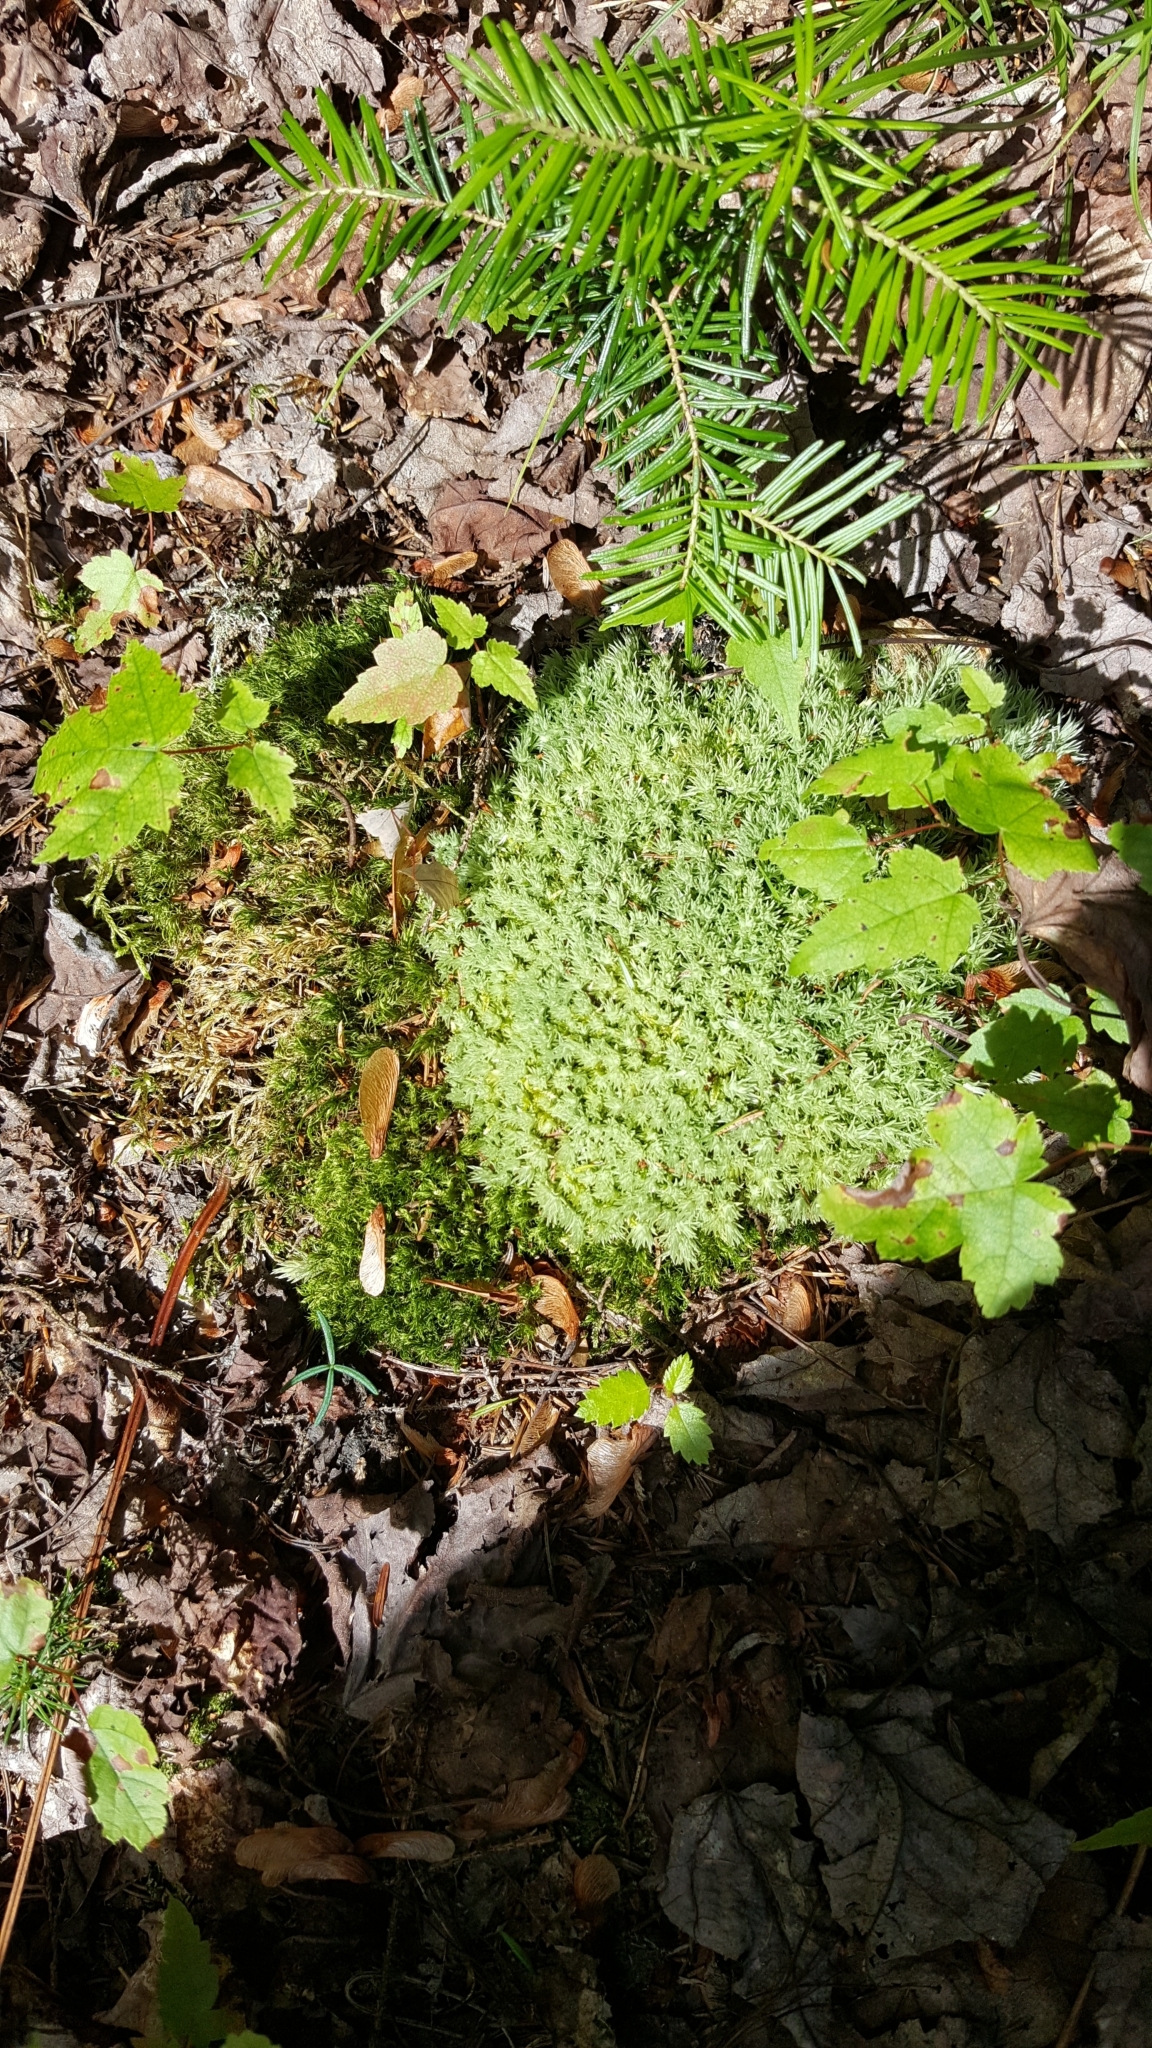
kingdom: Plantae
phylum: Bryophyta
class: Bryopsida
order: Dicranales
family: Leucobryaceae
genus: Leucobryum
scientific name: Leucobryum glaucum
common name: Large white-moss
